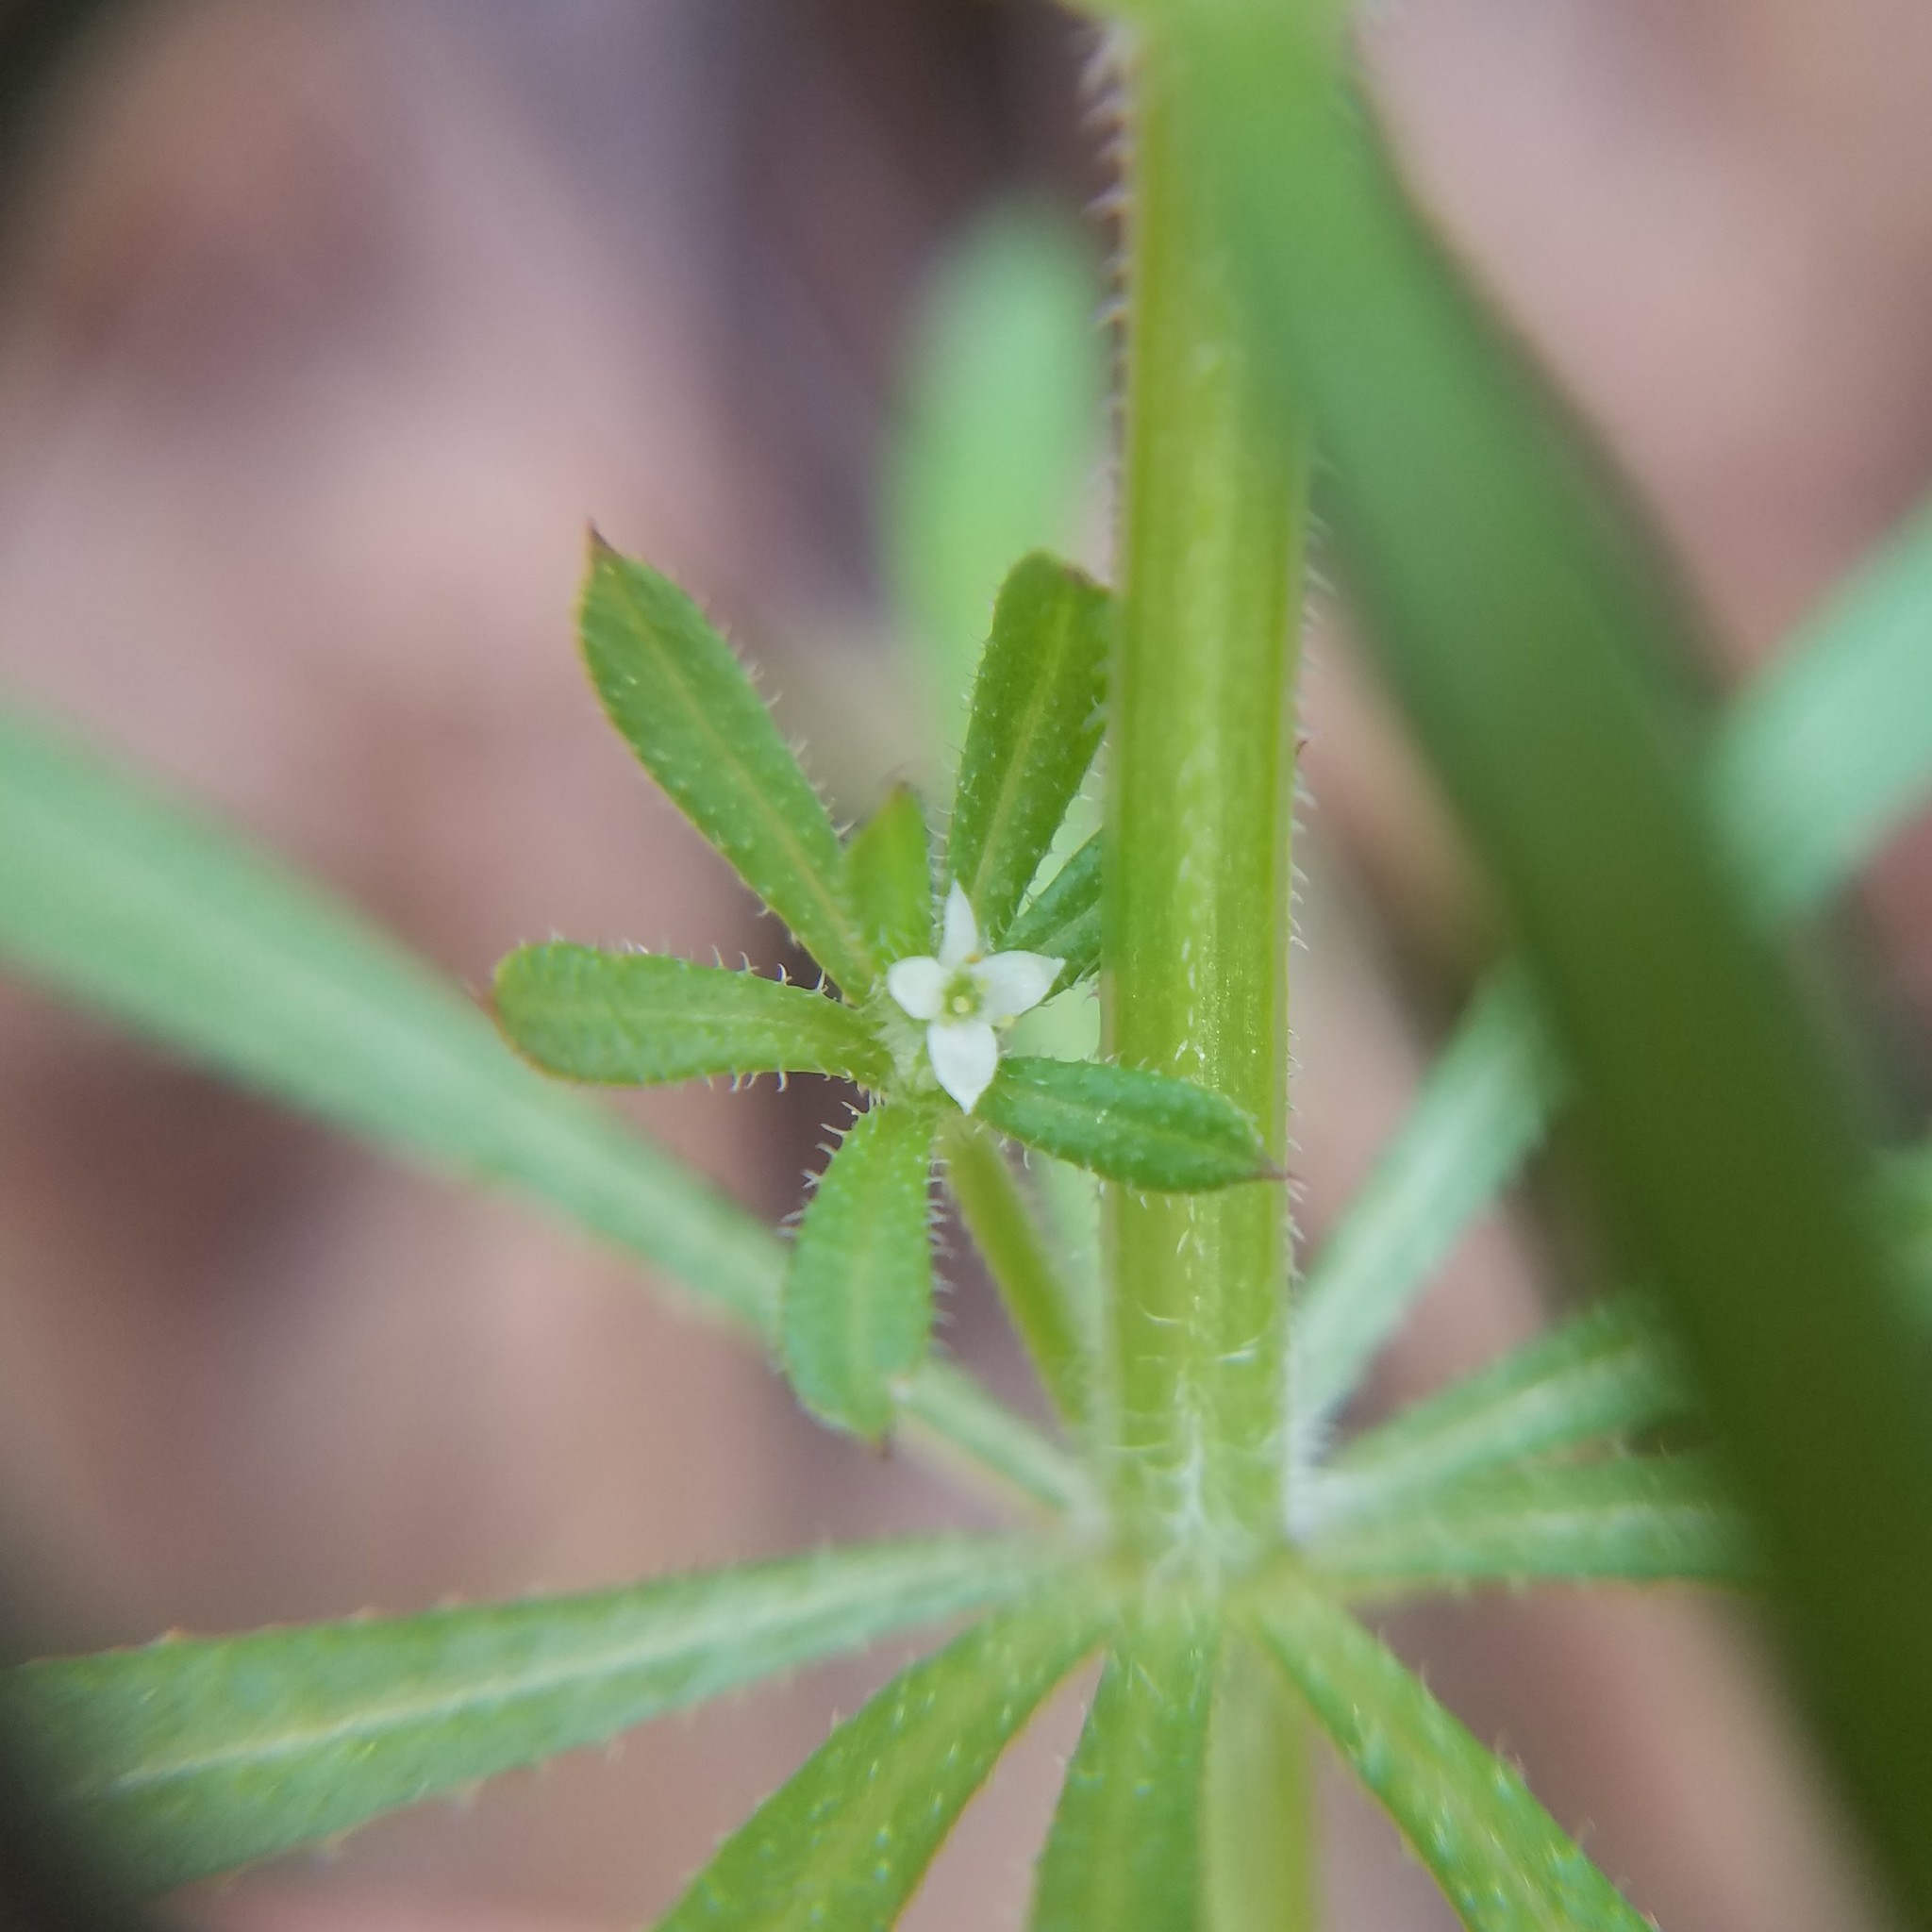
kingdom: Plantae
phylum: Tracheophyta
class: Magnoliopsida
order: Gentianales
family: Rubiaceae
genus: Galium
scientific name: Galium aparine
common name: Cleavers
